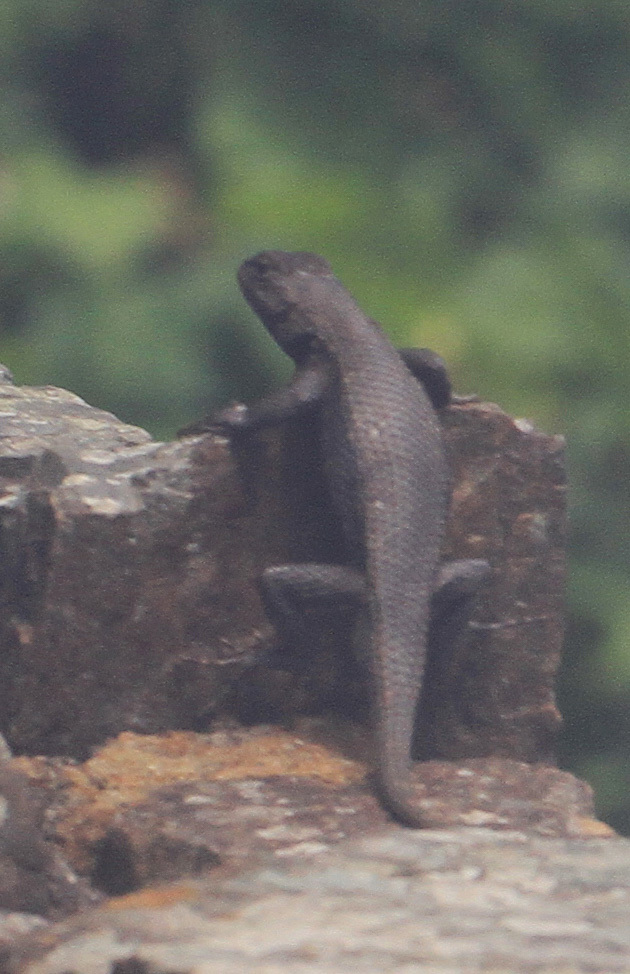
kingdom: Animalia
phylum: Chordata
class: Squamata
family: Phrynosomatidae
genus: Sceloporus
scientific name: Sceloporus consobrinus
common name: Southern prairie lizard
